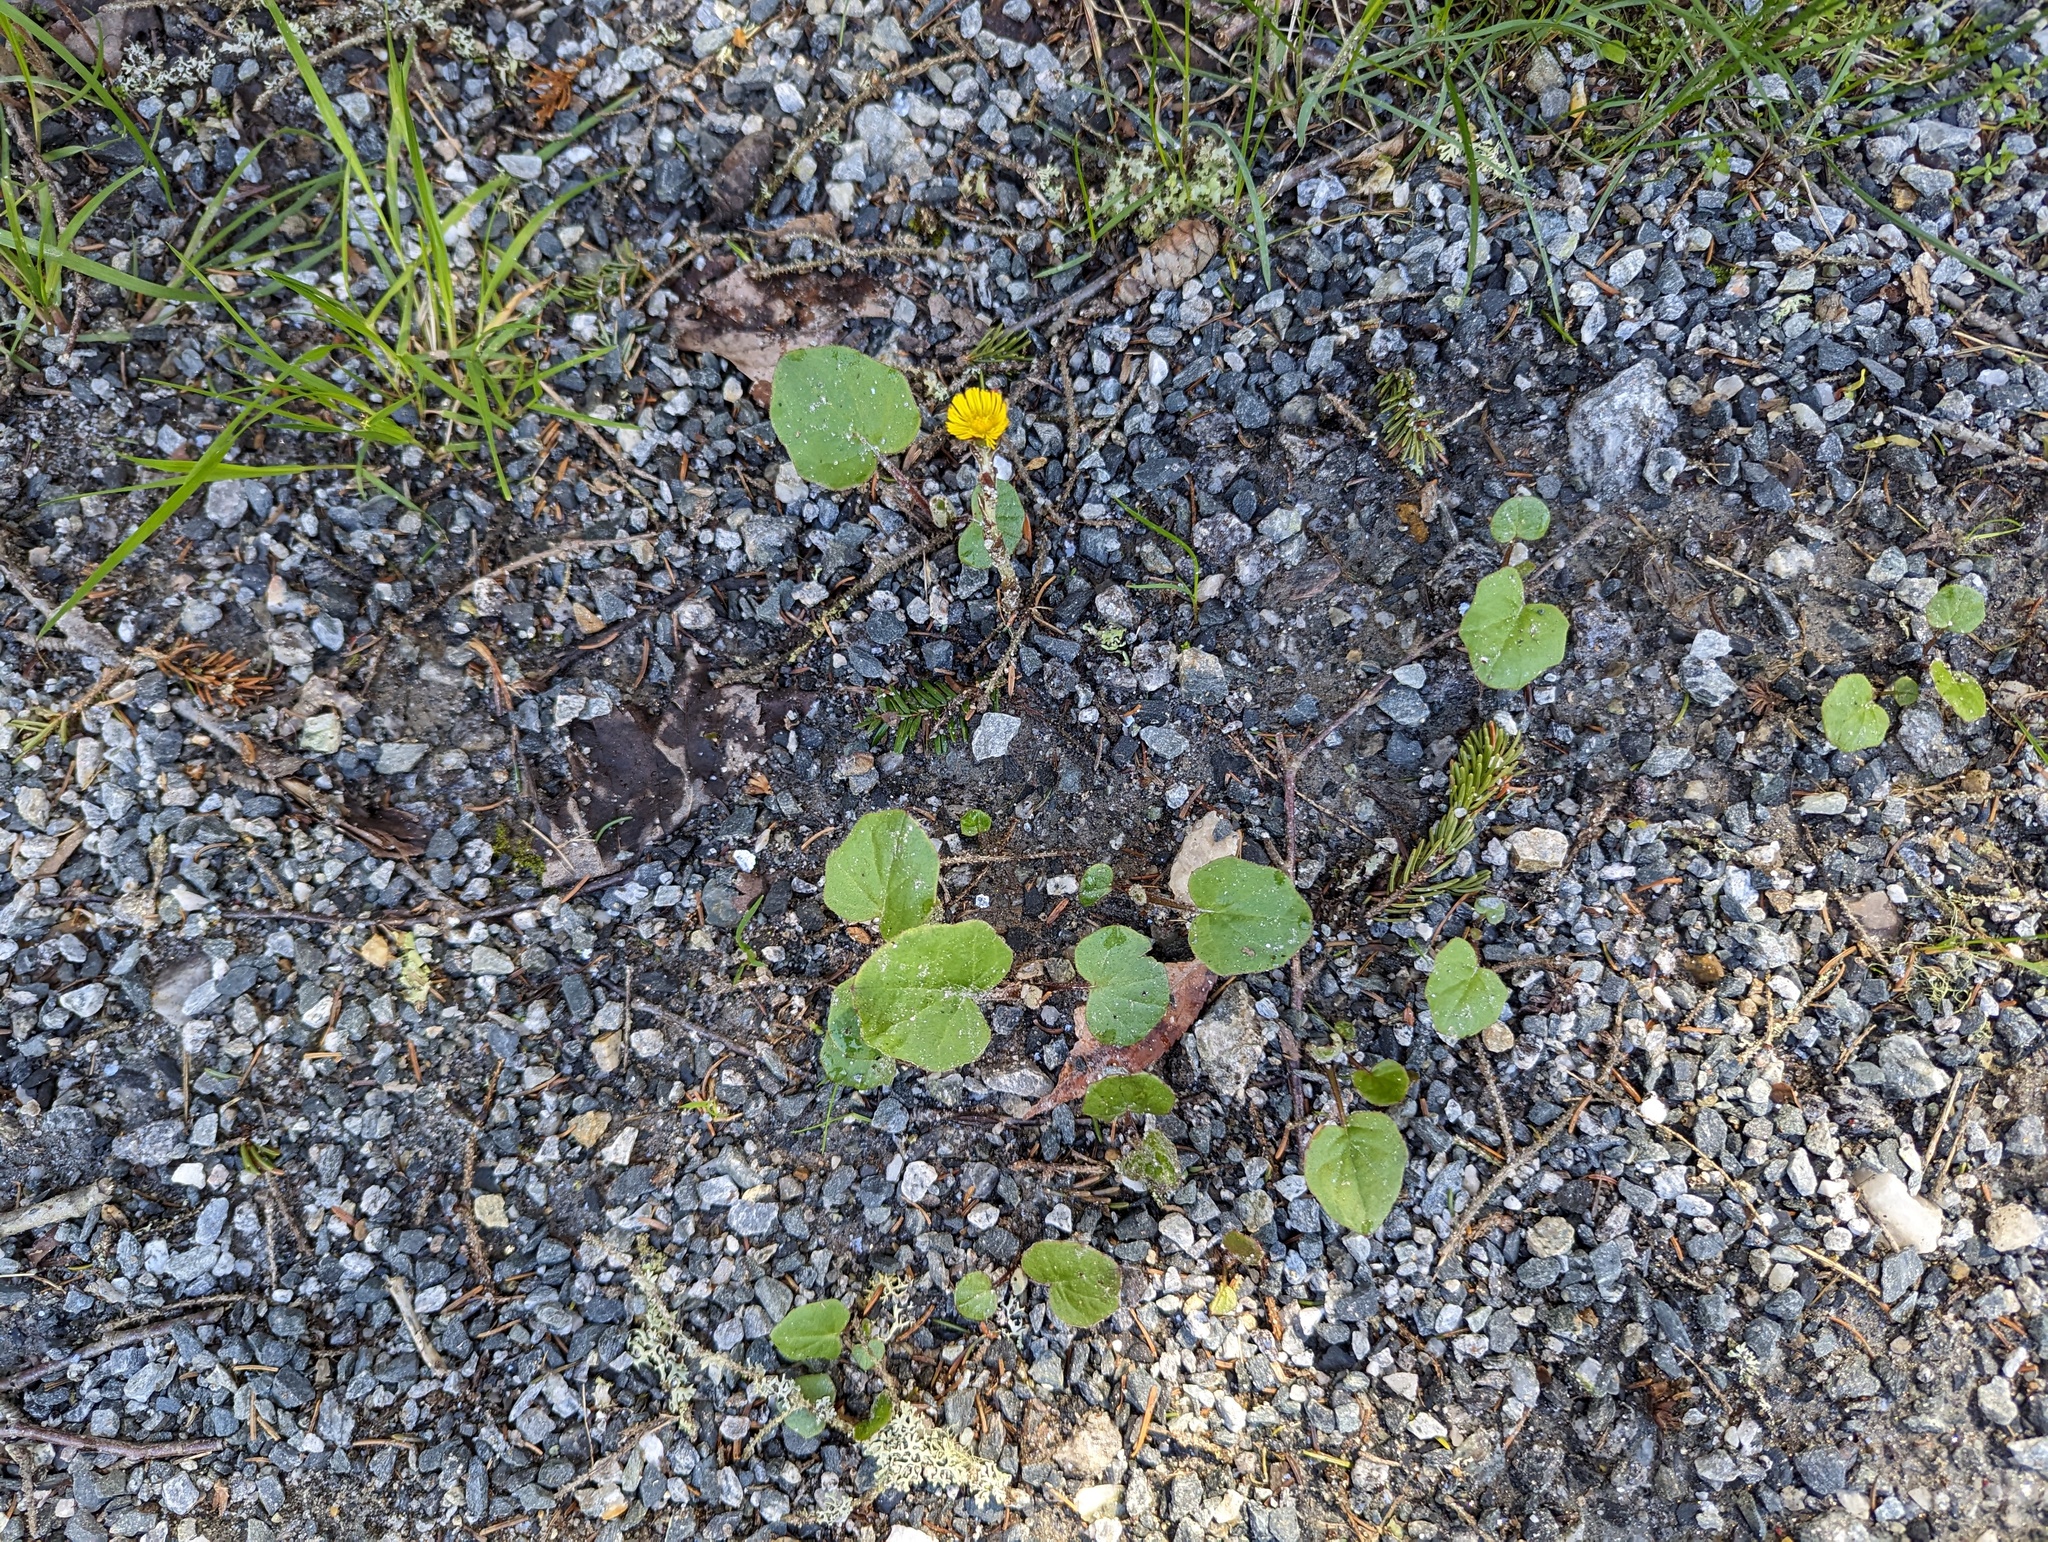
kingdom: Plantae
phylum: Tracheophyta
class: Magnoliopsida
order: Asterales
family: Asteraceae
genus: Tussilago
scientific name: Tussilago farfara
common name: Coltsfoot
